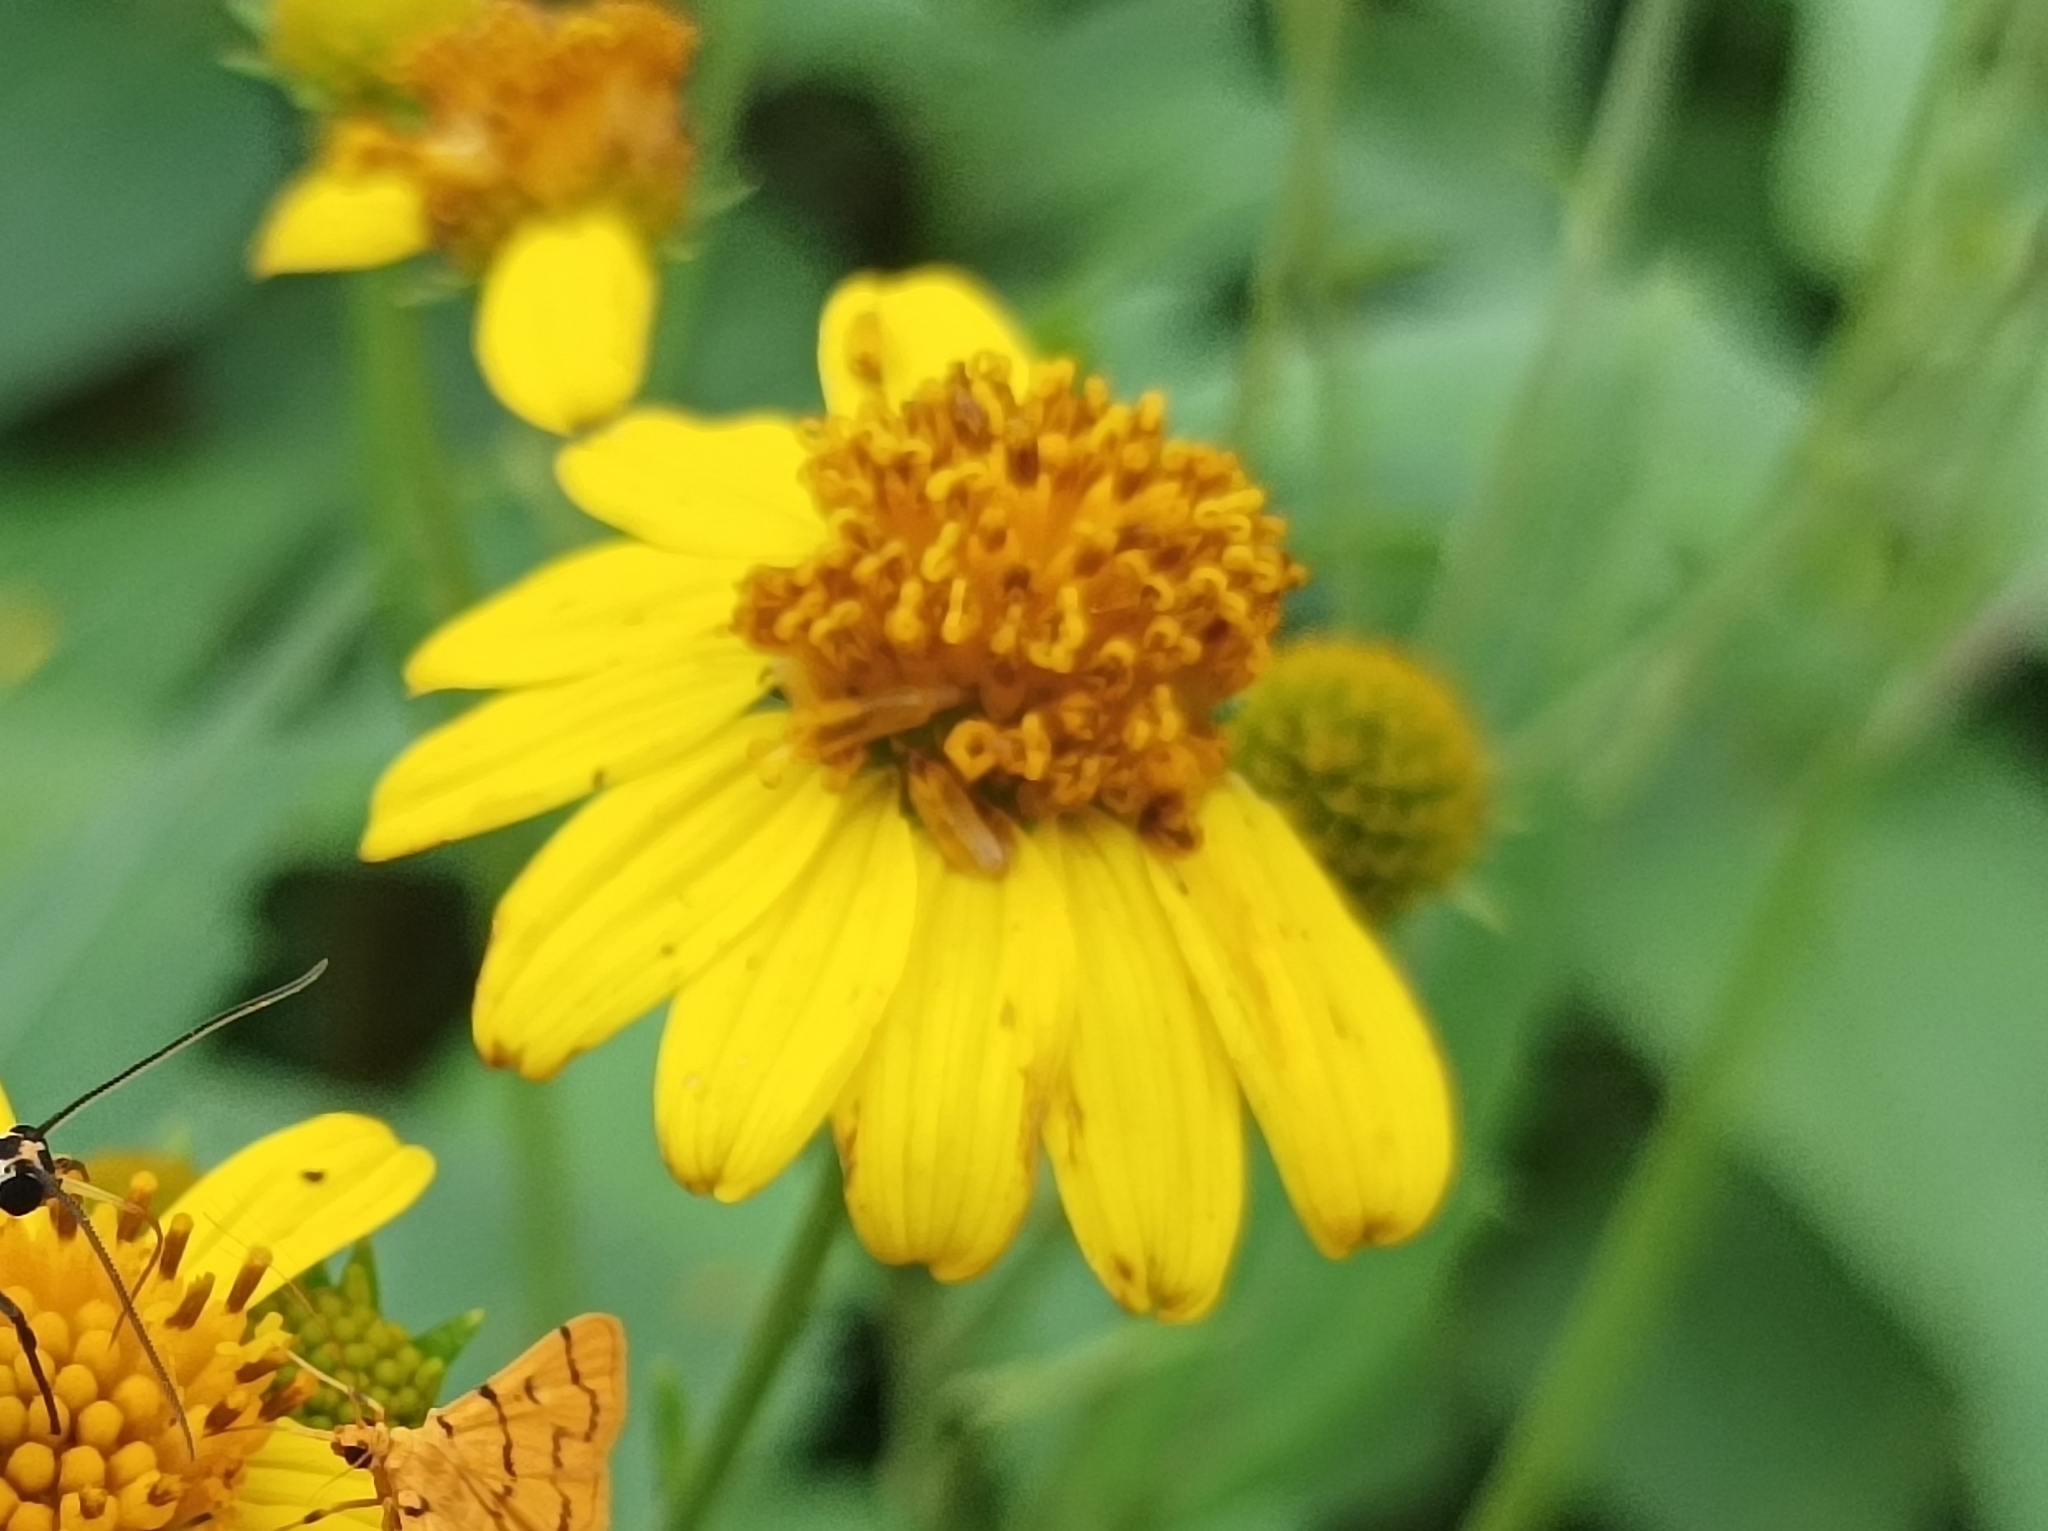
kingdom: Plantae
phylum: Tracheophyta
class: Magnoliopsida
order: Asterales
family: Asteraceae
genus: Wollastonia
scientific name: Wollastonia biflora
